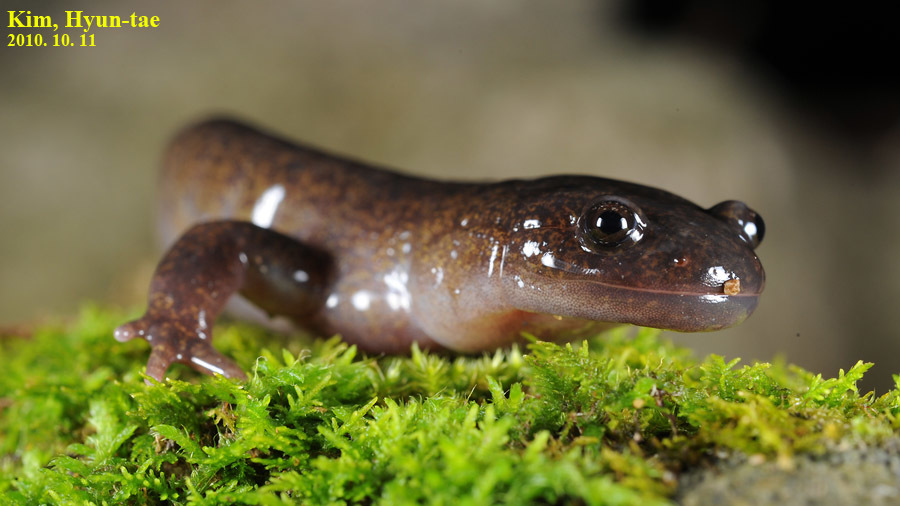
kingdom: Animalia
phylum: Chordata
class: Amphibia
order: Caudata
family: Hynobiidae
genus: Hynobius
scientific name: Hynobius leechii
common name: Gensan salamander
